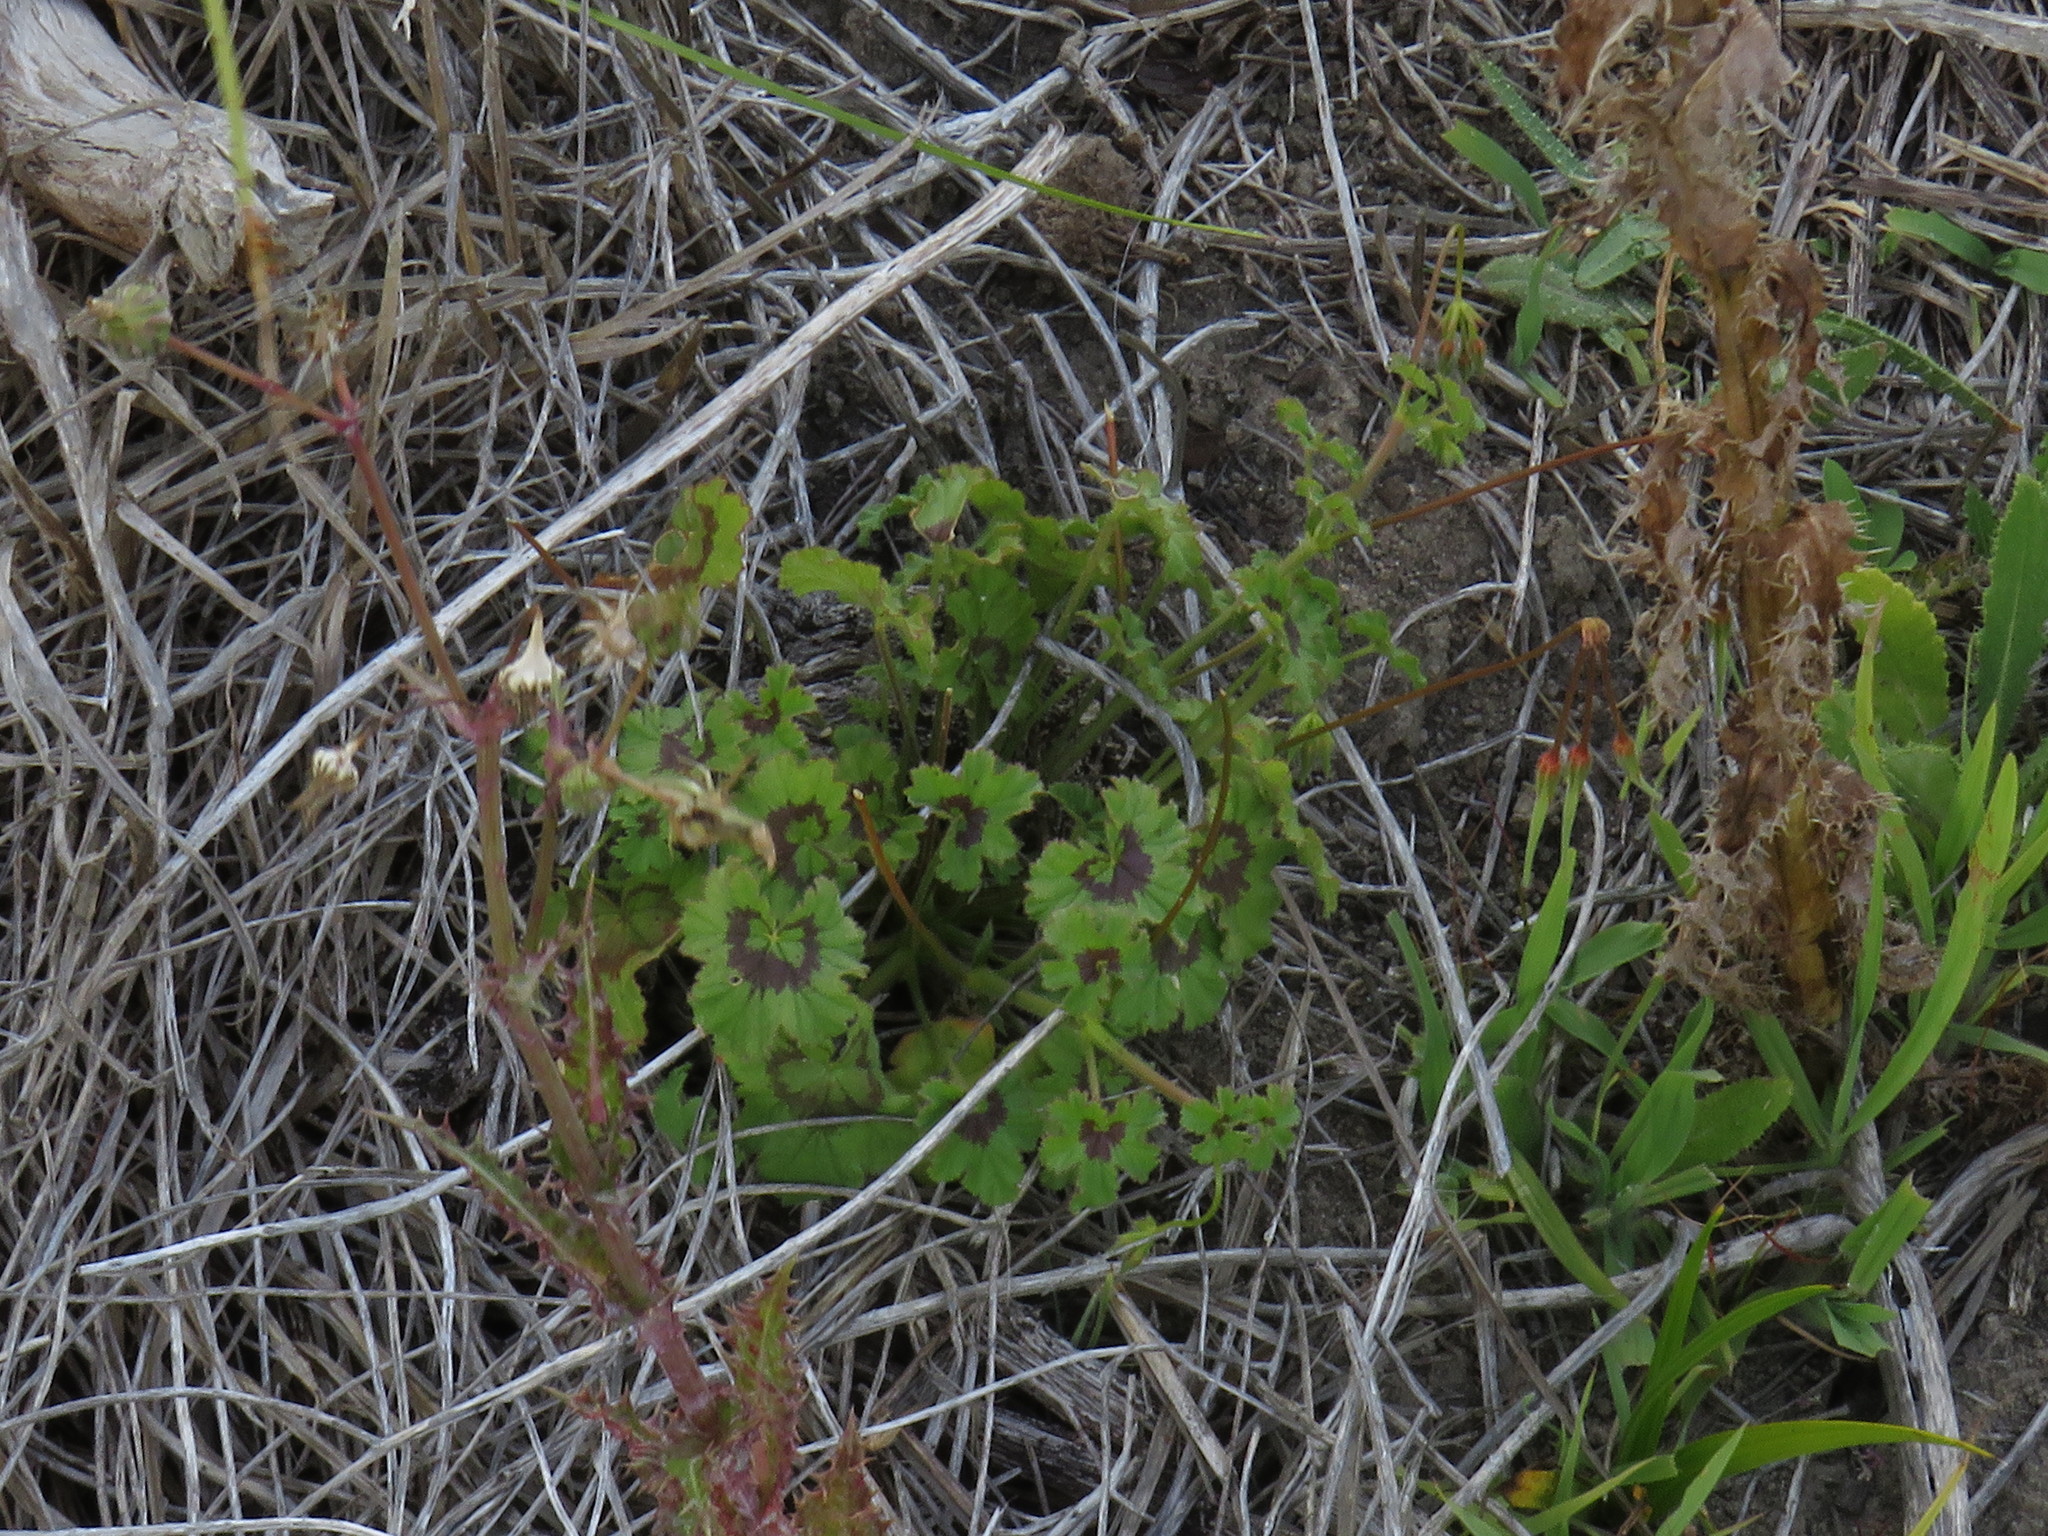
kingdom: Plantae
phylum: Tracheophyta
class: Magnoliopsida
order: Geraniales
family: Geraniaceae
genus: Pelargonium
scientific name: Pelargonium elongatum
